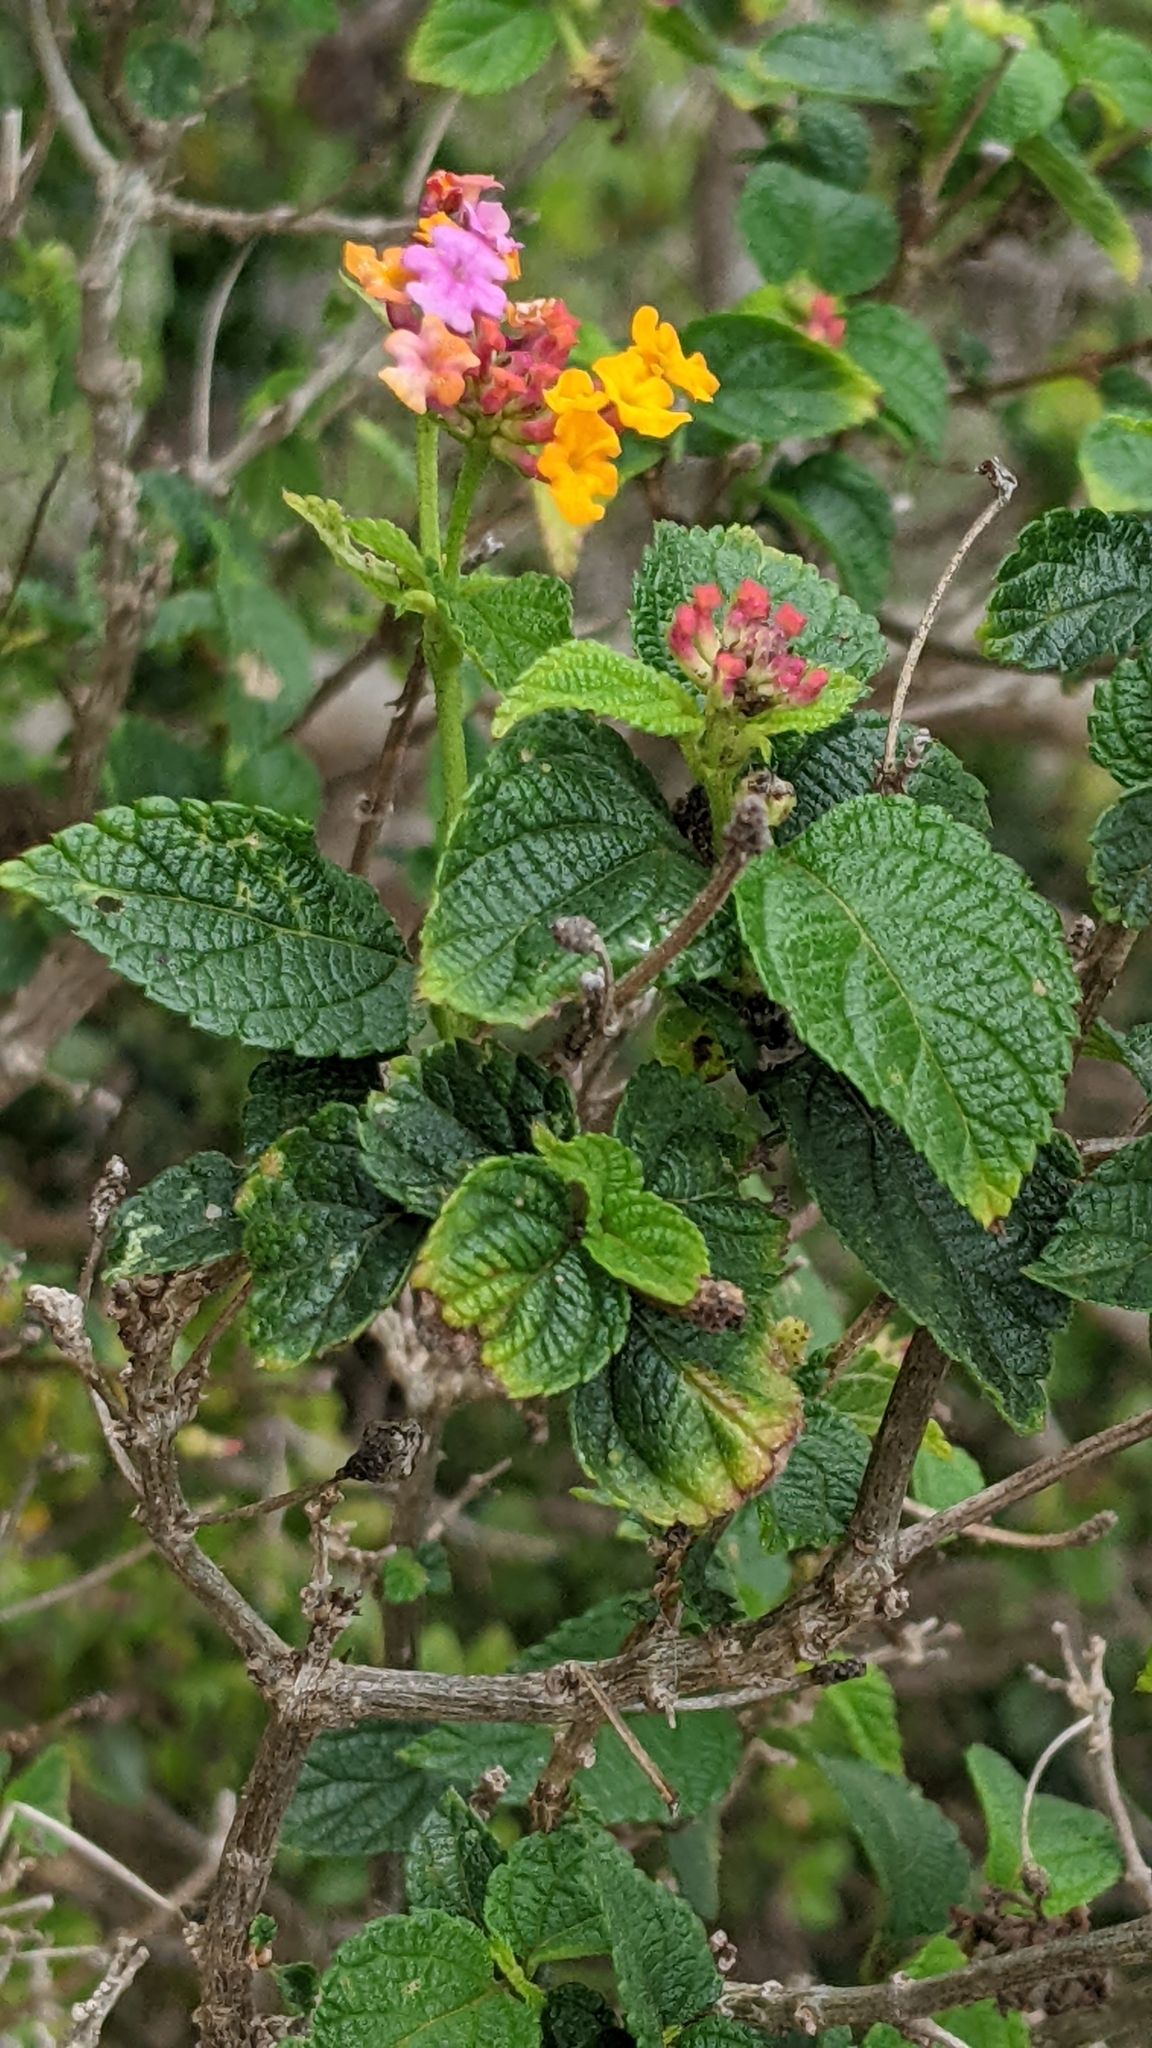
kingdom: Plantae
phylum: Tracheophyta
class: Magnoliopsida
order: Lamiales
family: Verbenaceae
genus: Lantana
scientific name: Lantana camara
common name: Lantana
